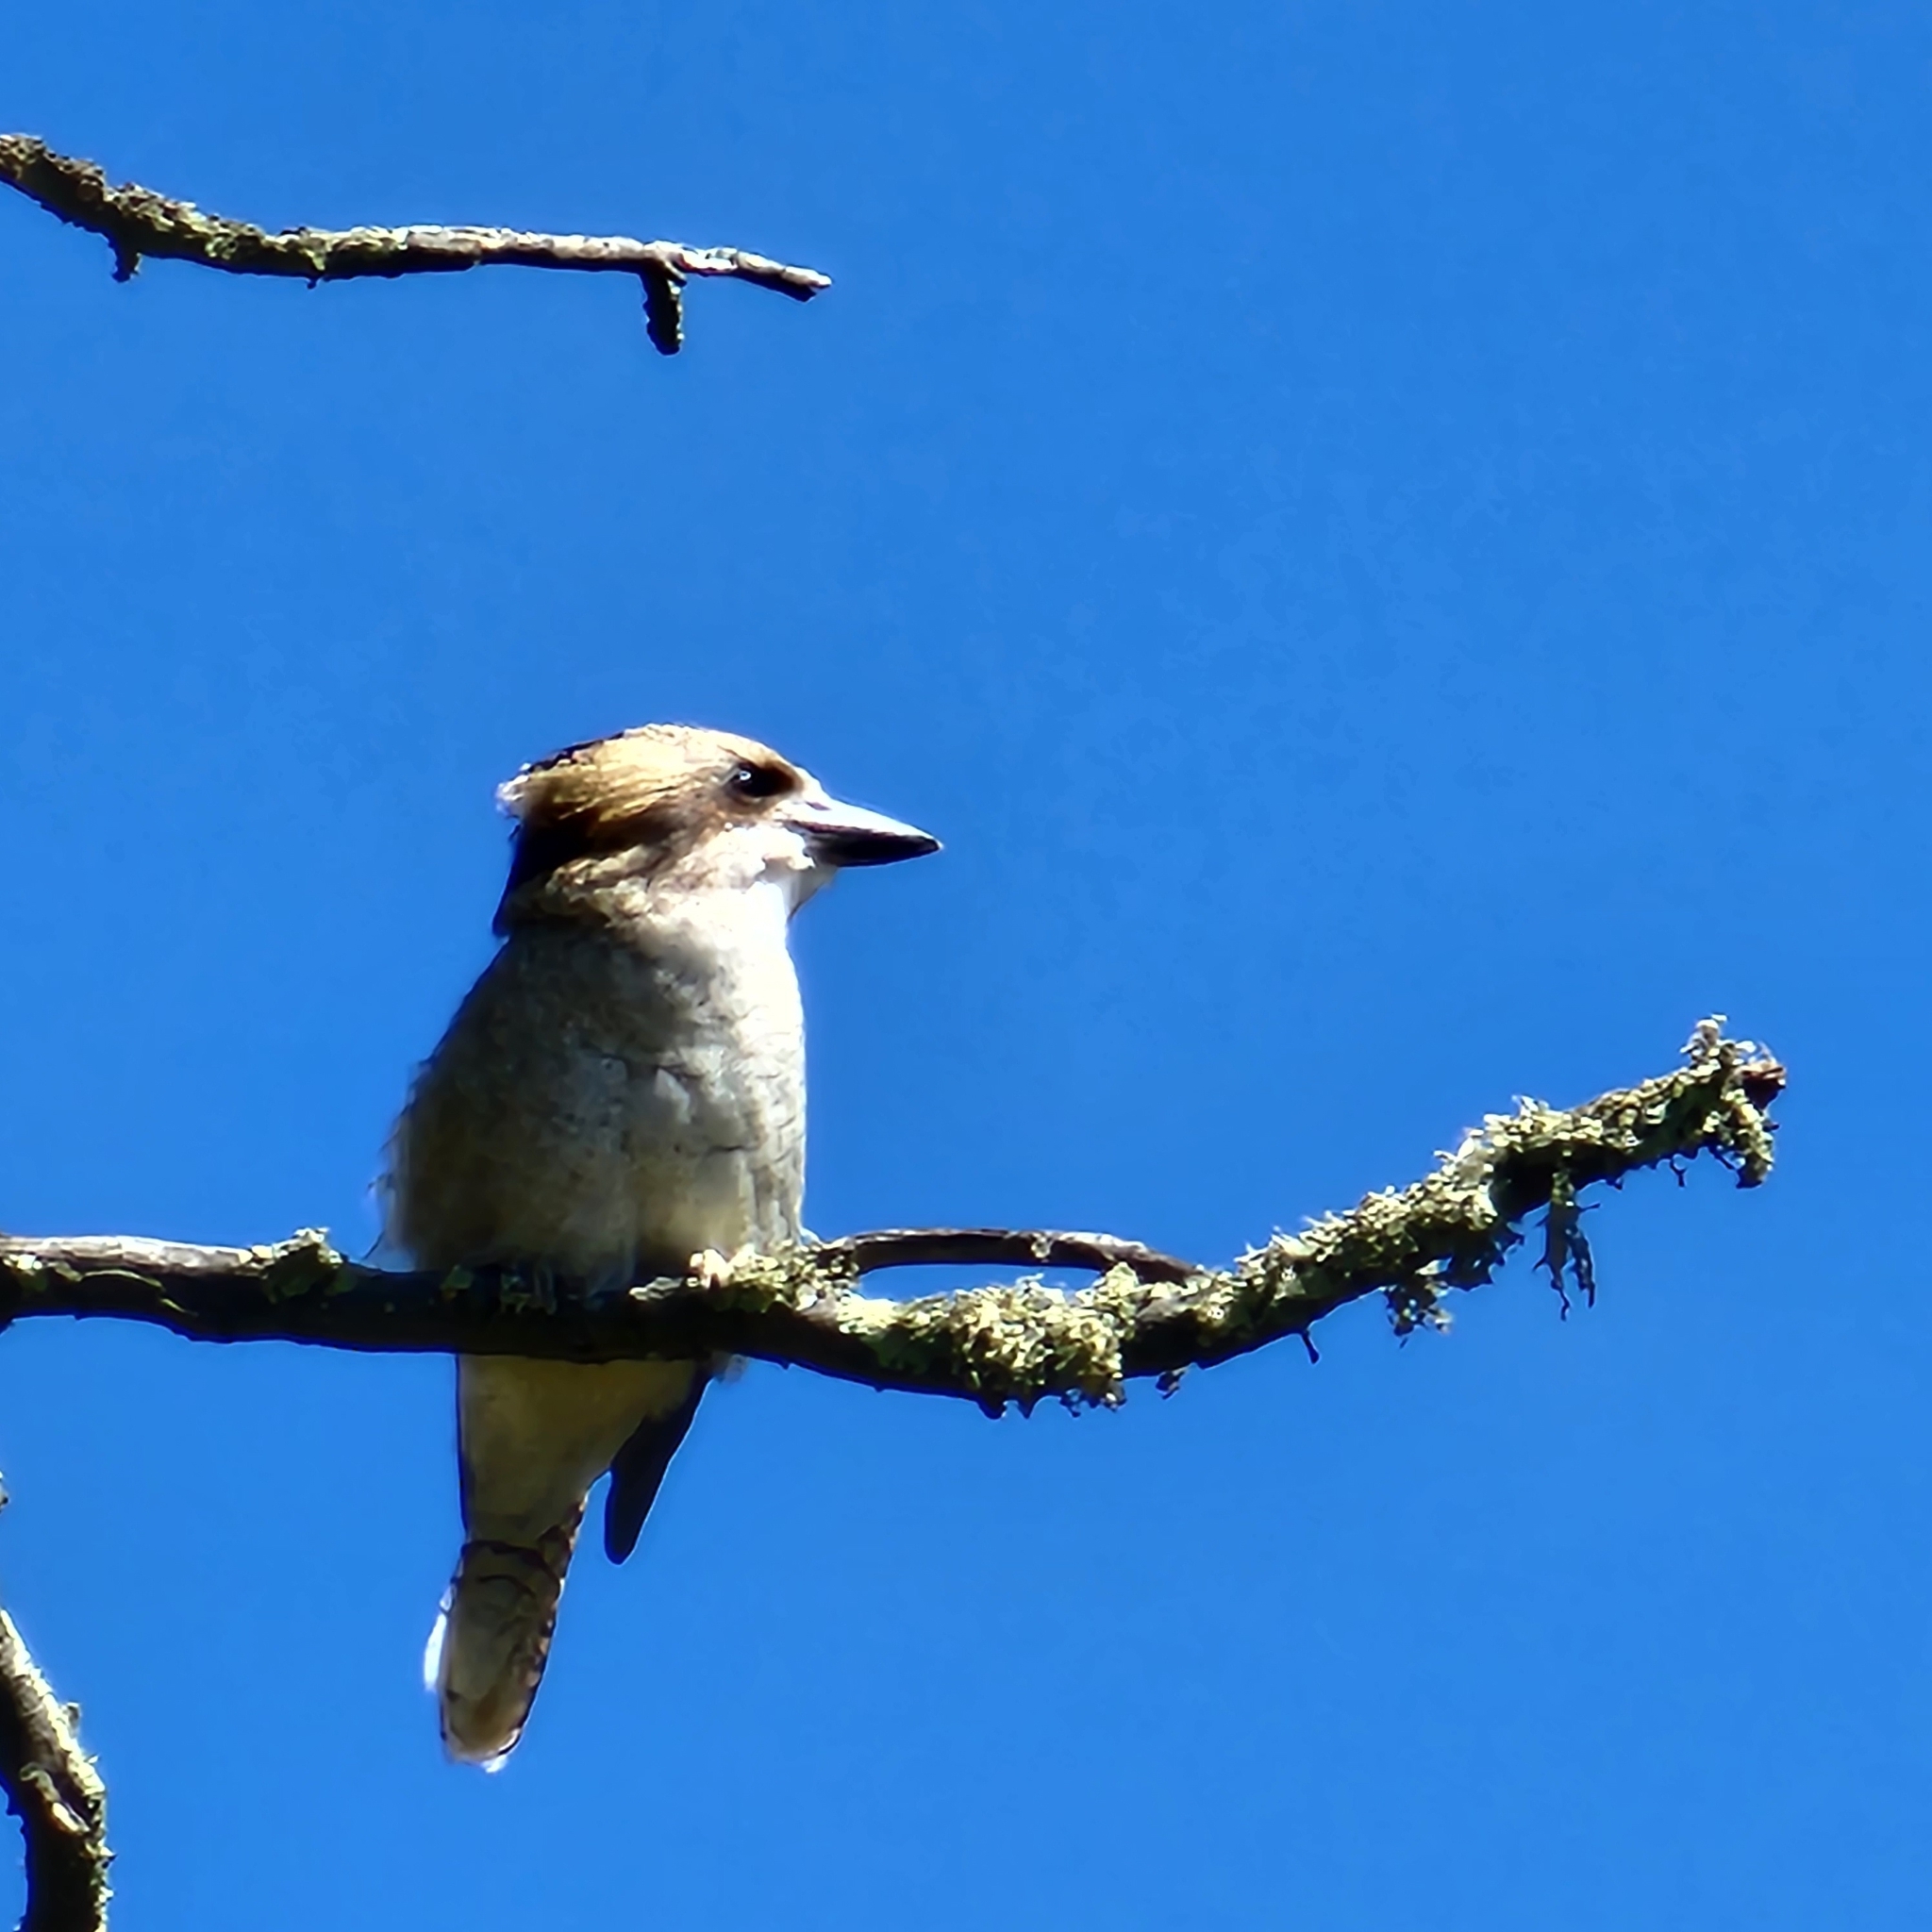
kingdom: Animalia
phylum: Chordata
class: Aves
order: Coraciiformes
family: Alcedinidae
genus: Dacelo
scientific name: Dacelo novaeguineae
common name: Laughing kookaburra
